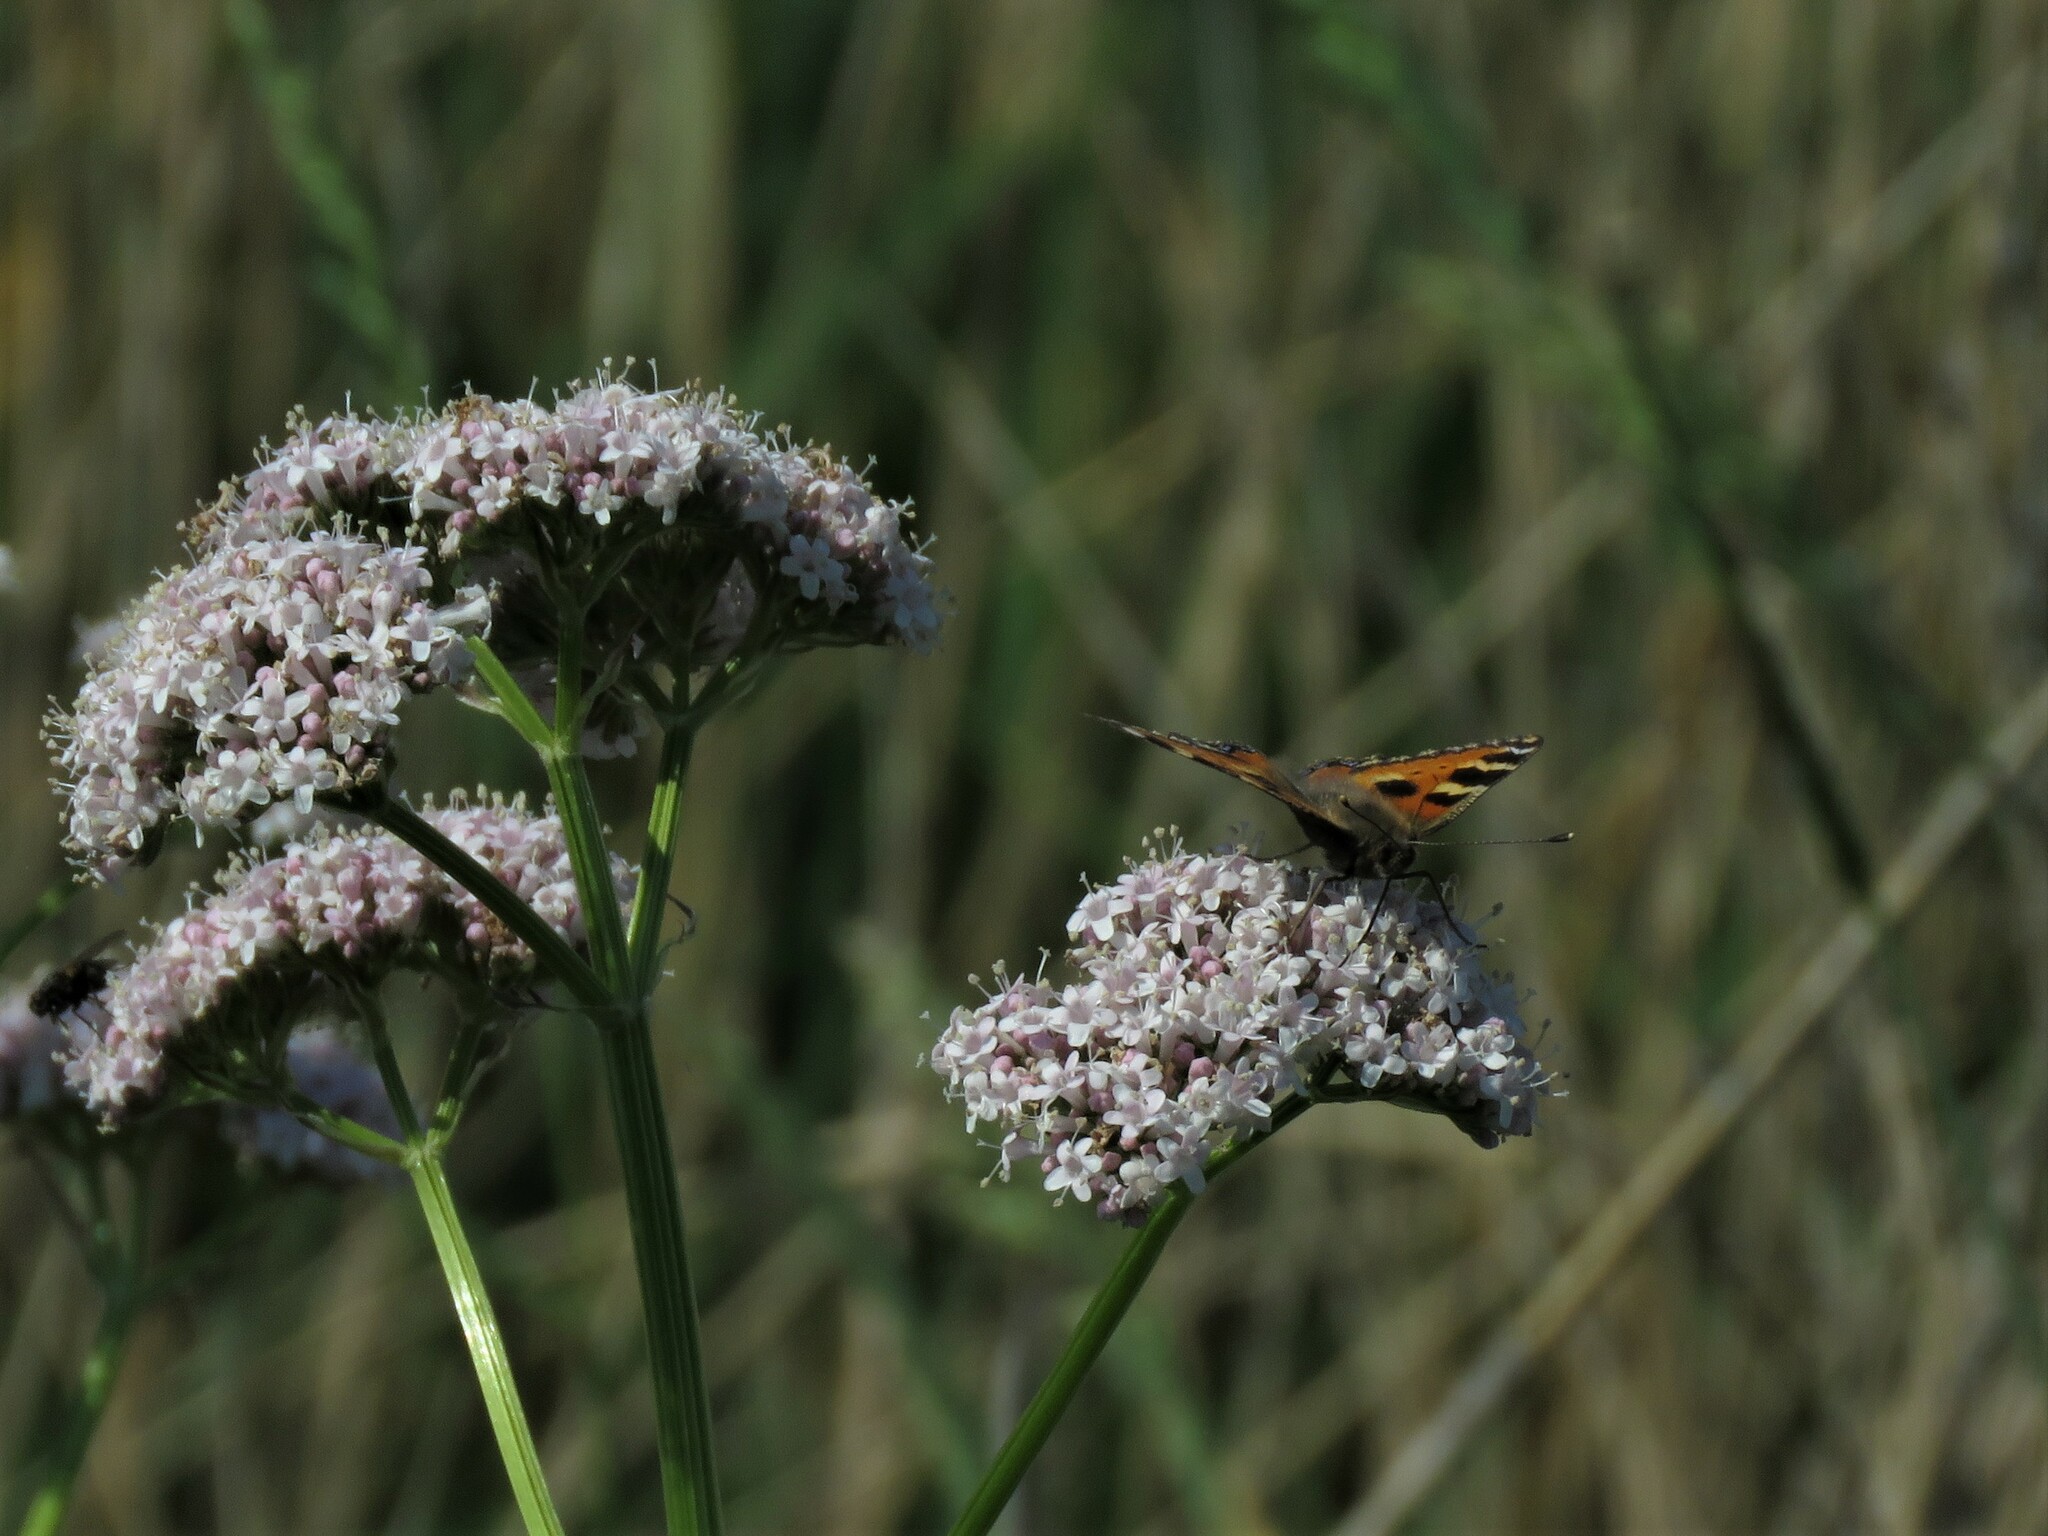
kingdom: Animalia
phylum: Arthropoda
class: Insecta
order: Lepidoptera
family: Nymphalidae
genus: Aglais
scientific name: Aglais urticae
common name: Small tortoiseshell
